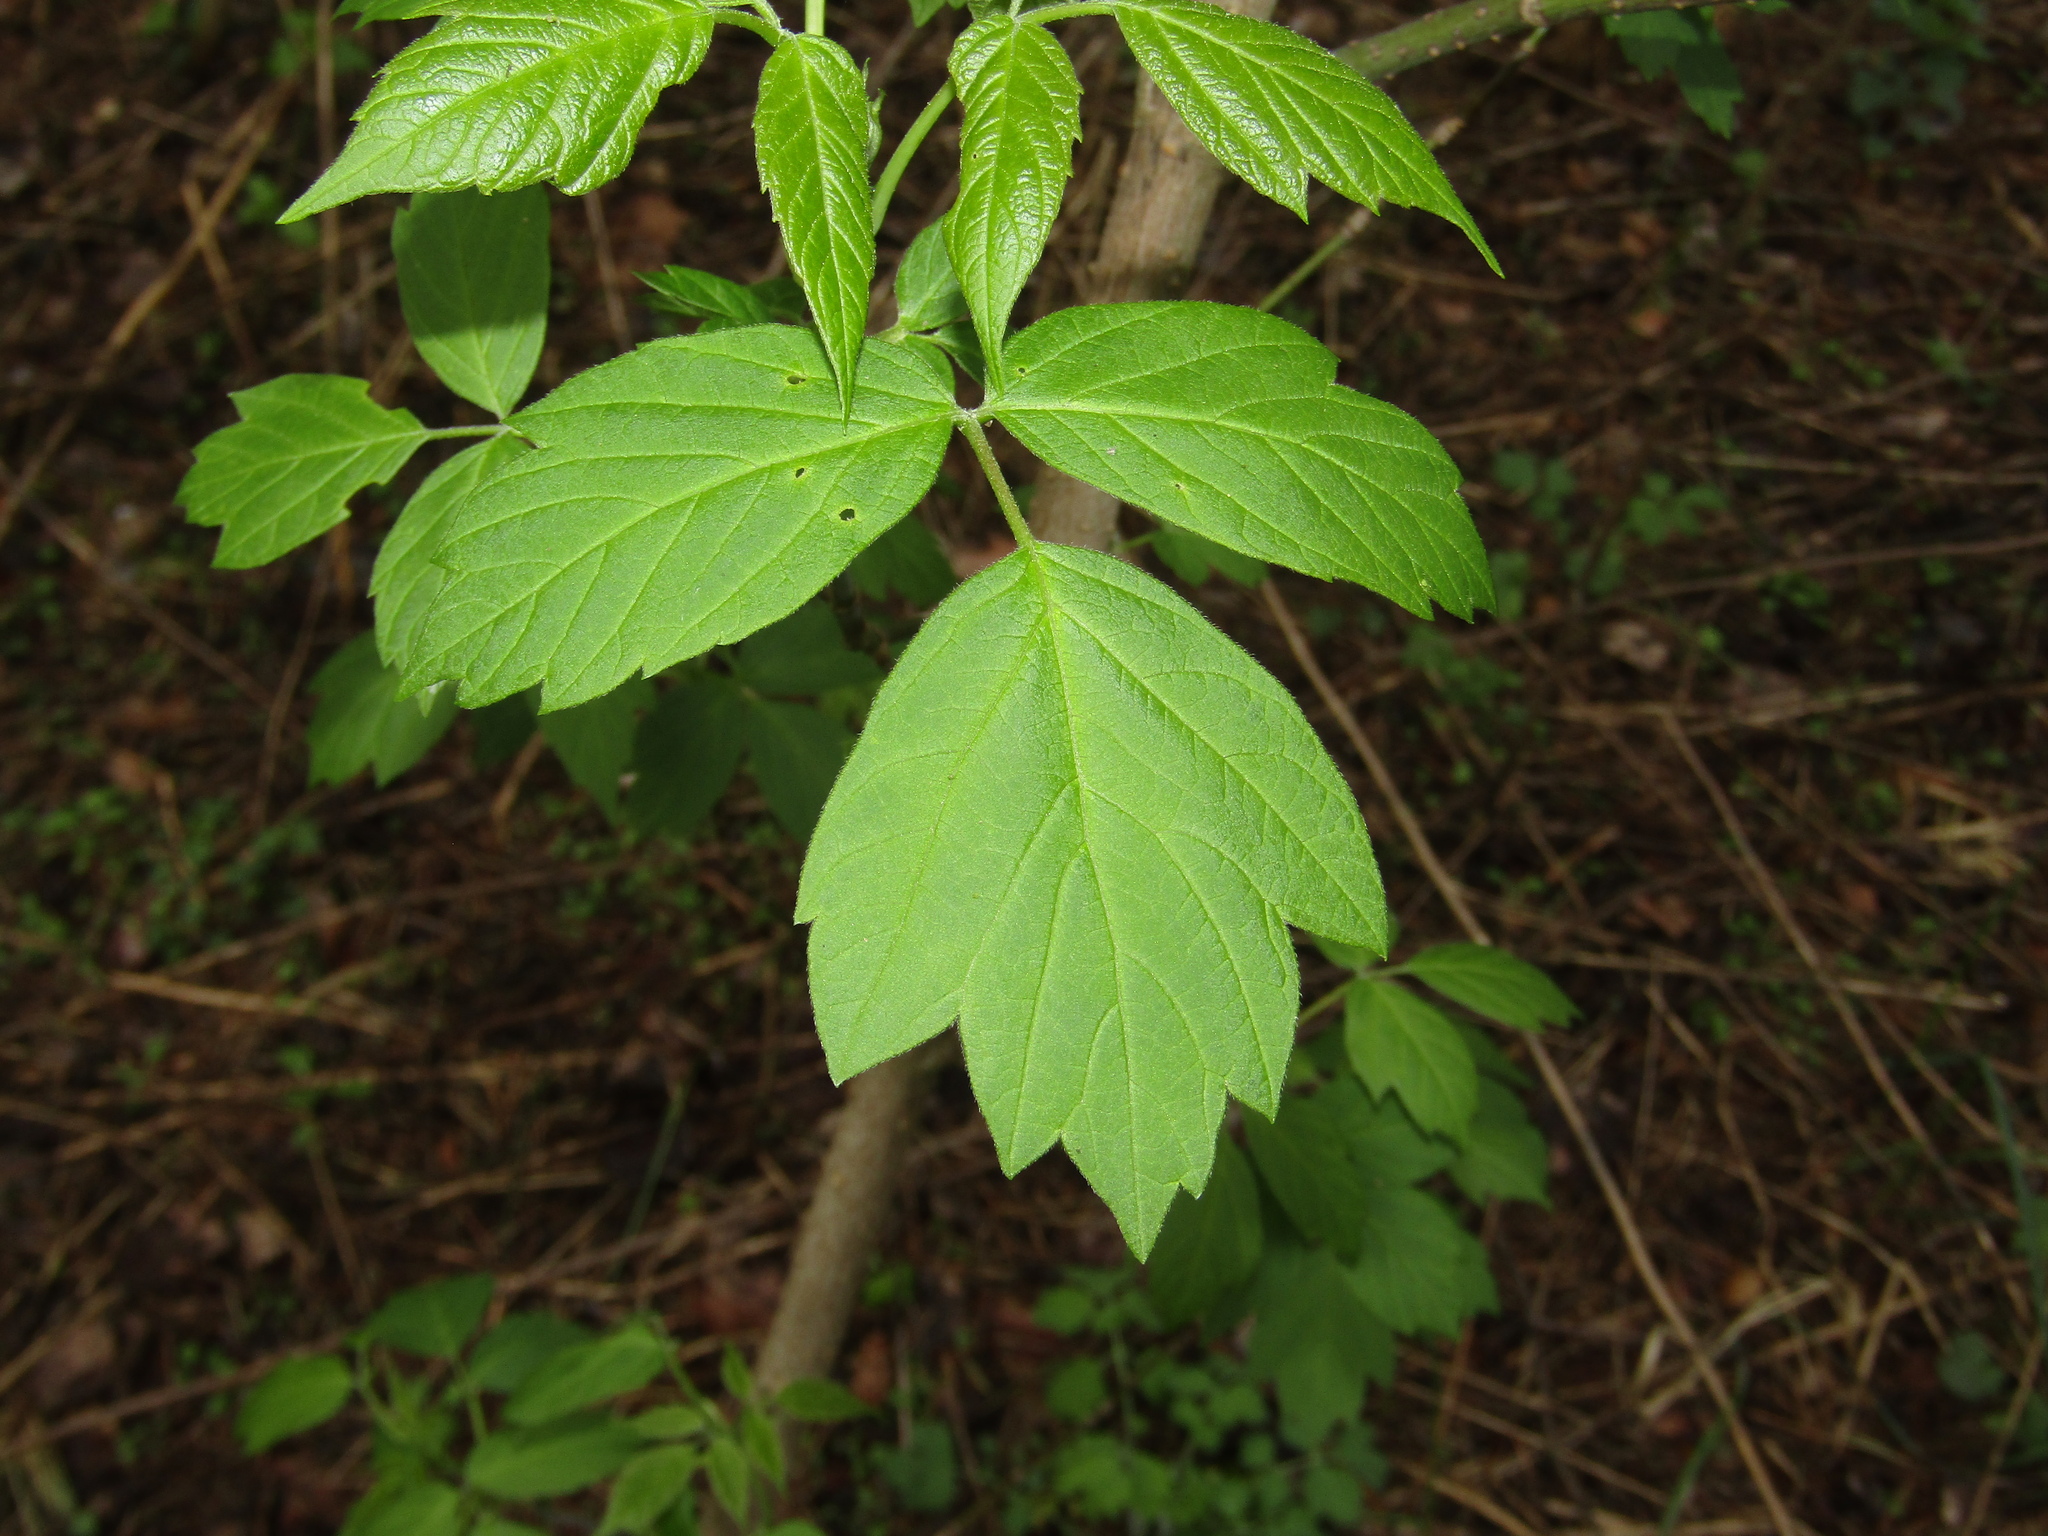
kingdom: Plantae
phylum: Tracheophyta
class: Magnoliopsida
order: Sapindales
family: Sapindaceae
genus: Acer
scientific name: Acer negundo
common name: Ashleaf maple
